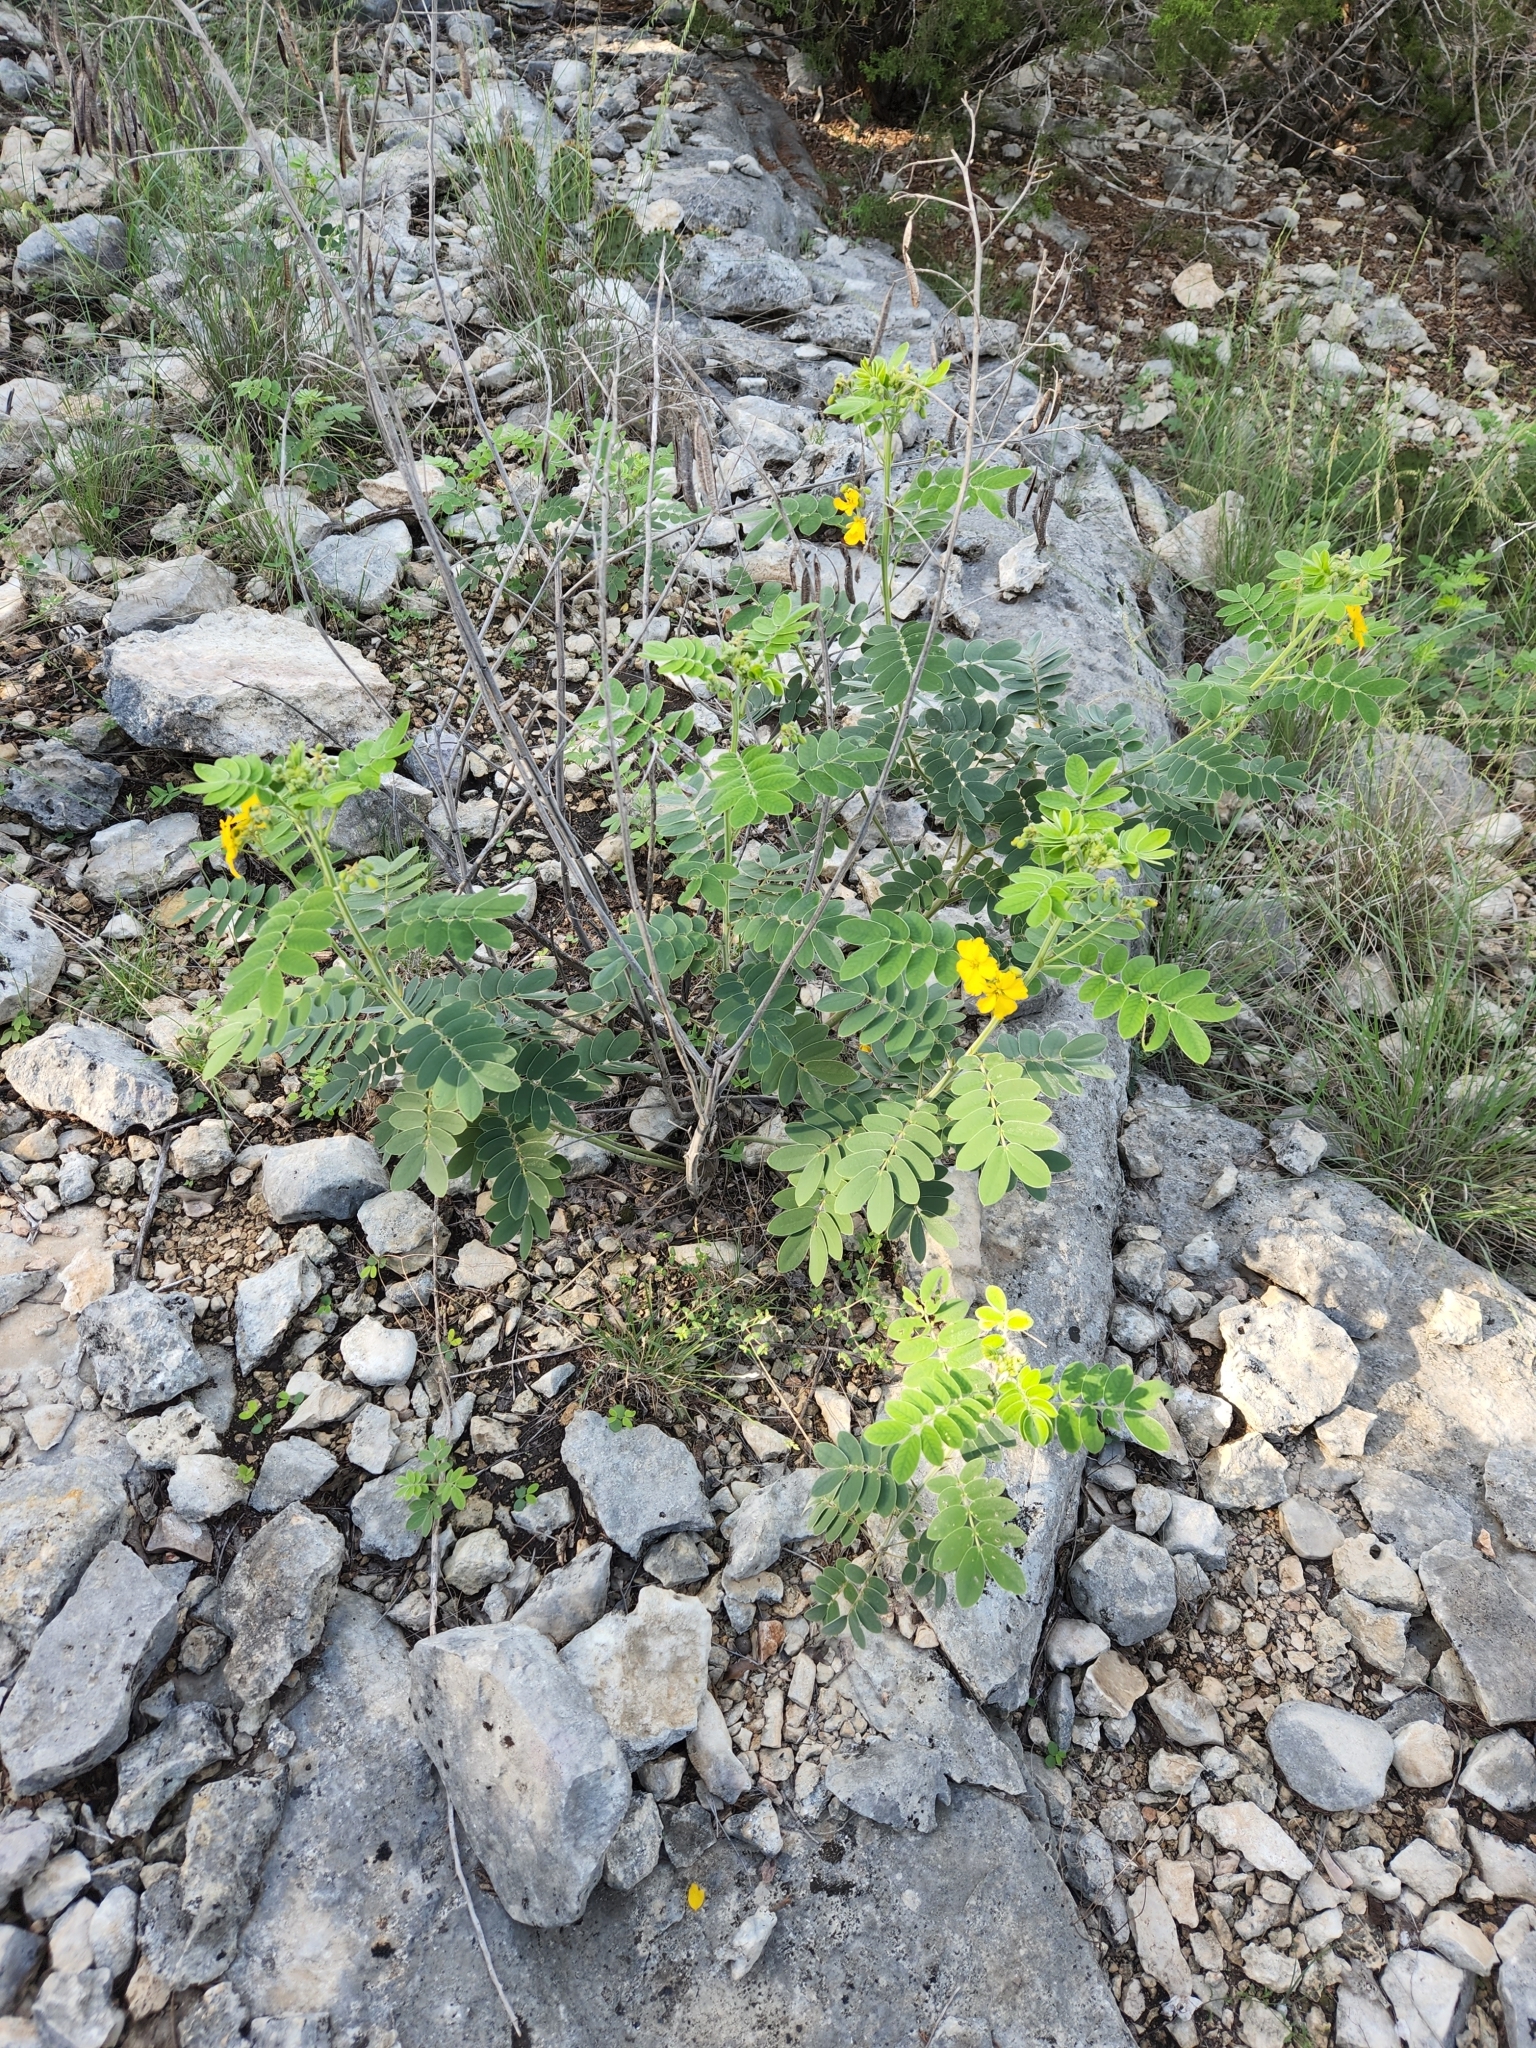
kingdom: Plantae
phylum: Tracheophyta
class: Magnoliopsida
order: Fabales
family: Fabaceae
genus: Senna
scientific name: Senna lindheimeriana
